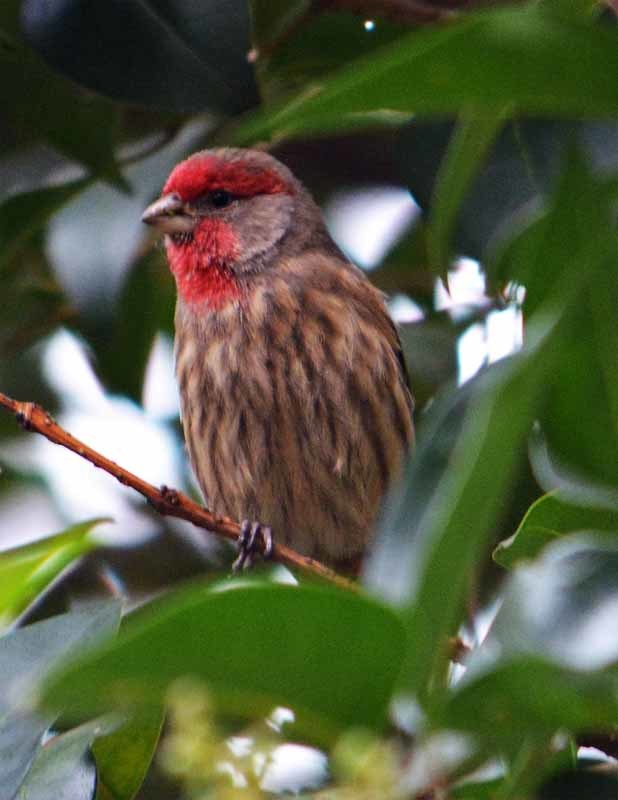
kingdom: Animalia
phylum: Chordata
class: Aves
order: Passeriformes
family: Fringillidae
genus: Haemorhous
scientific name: Haemorhous mexicanus
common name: House finch
